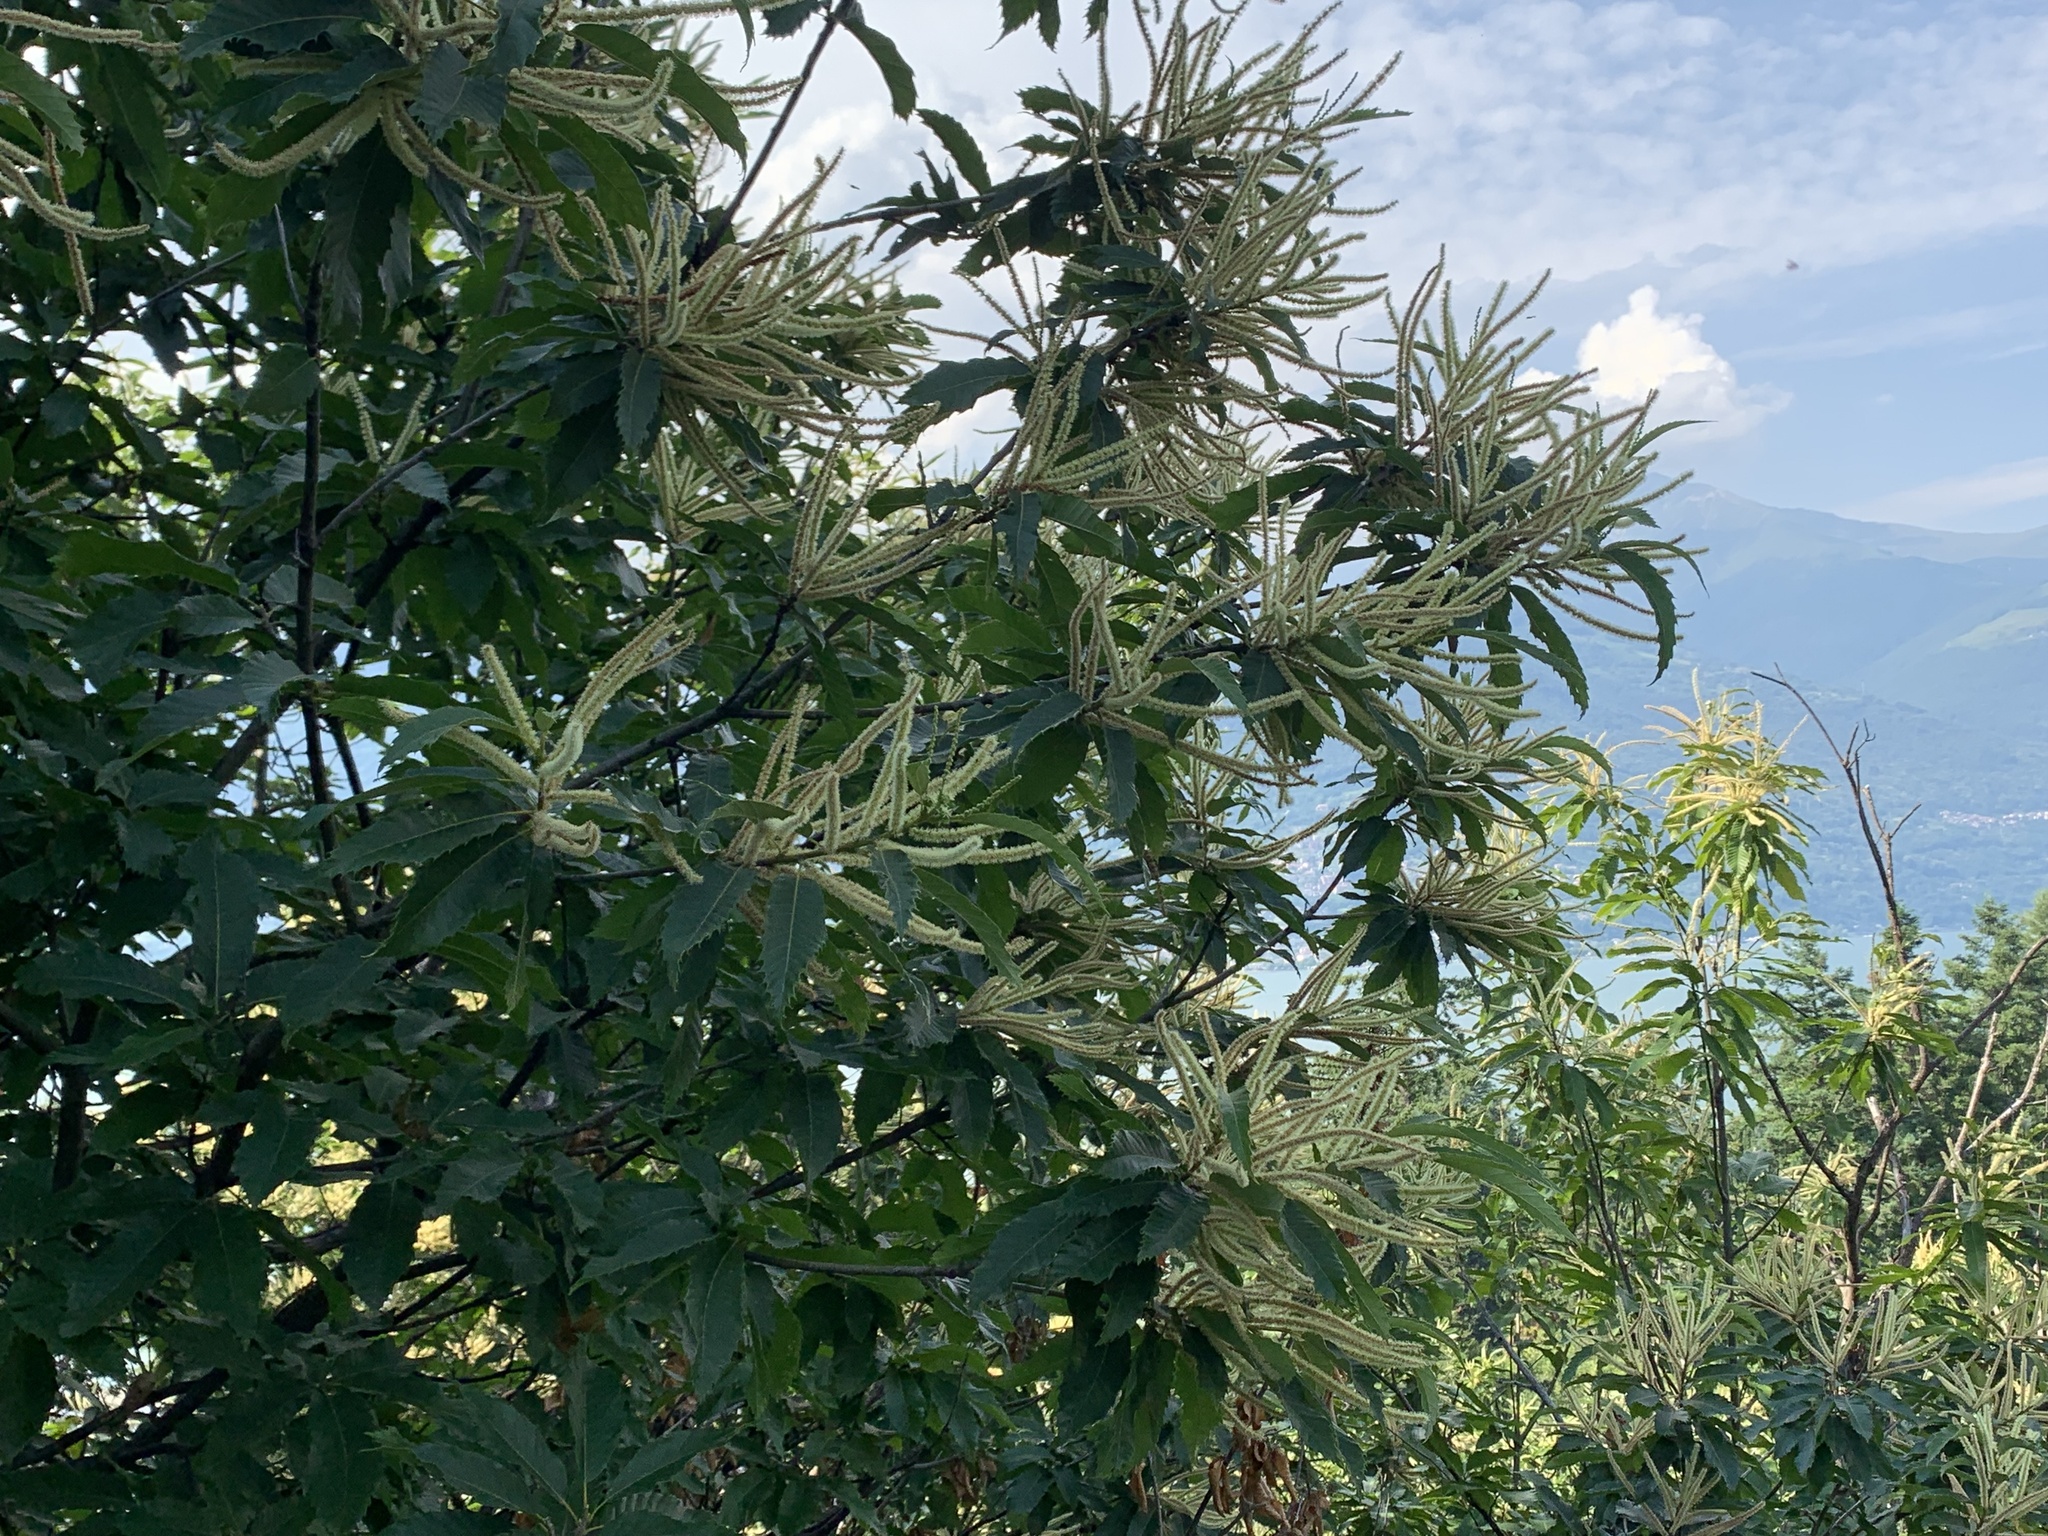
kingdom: Plantae
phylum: Tracheophyta
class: Magnoliopsida
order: Fagales
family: Fagaceae
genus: Castanea
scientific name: Castanea sativa
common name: Sweet chestnut
